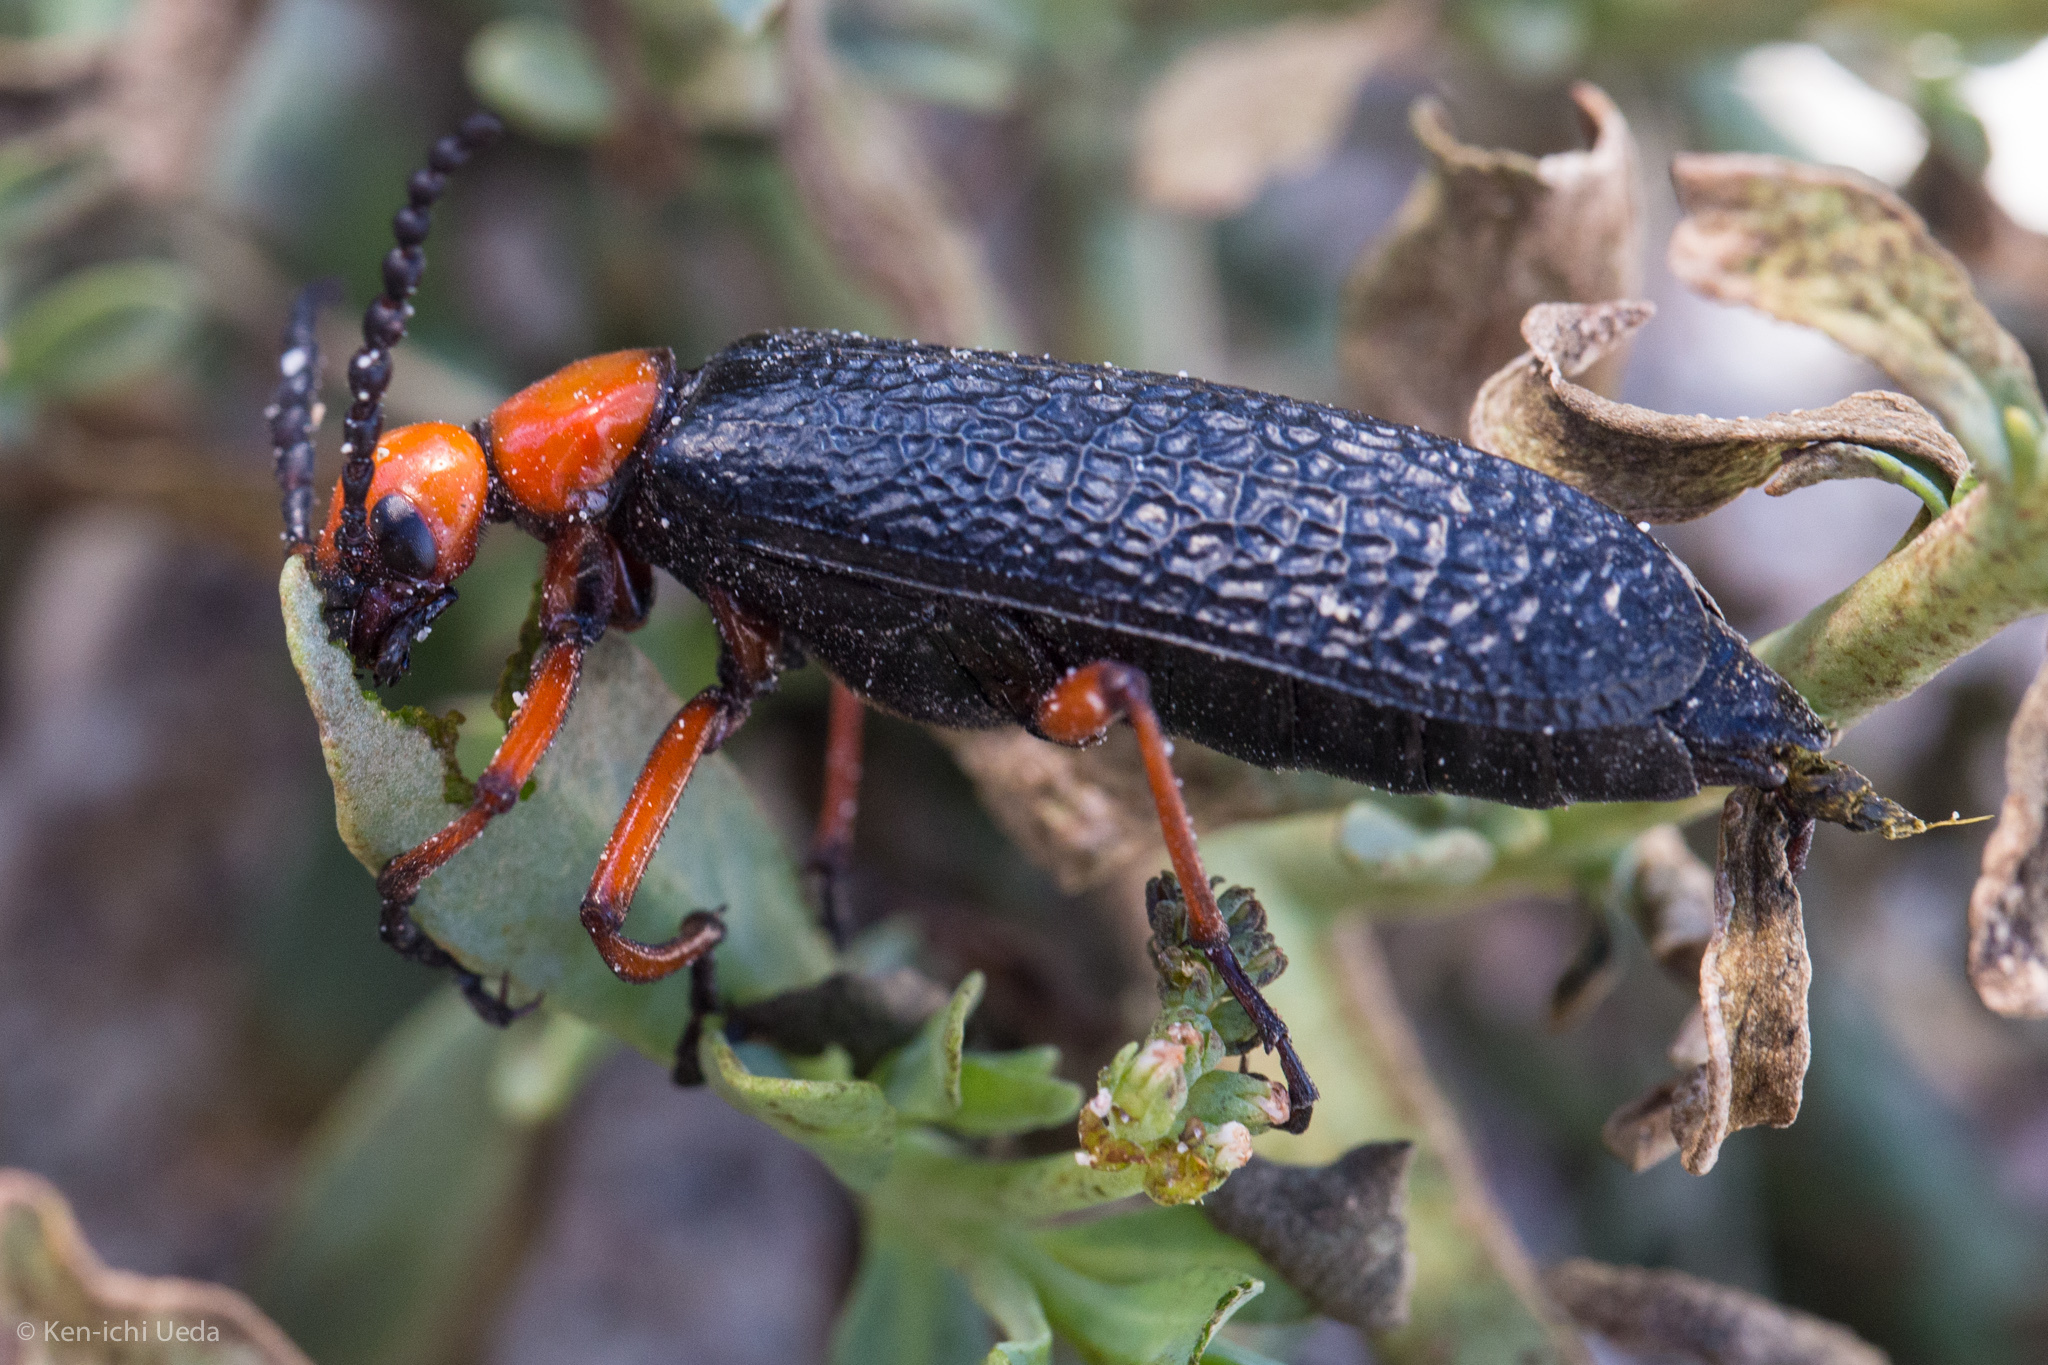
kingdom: Animalia
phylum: Arthropoda
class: Insecta
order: Coleoptera
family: Meloidae
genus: Lytta
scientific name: Lytta magister
